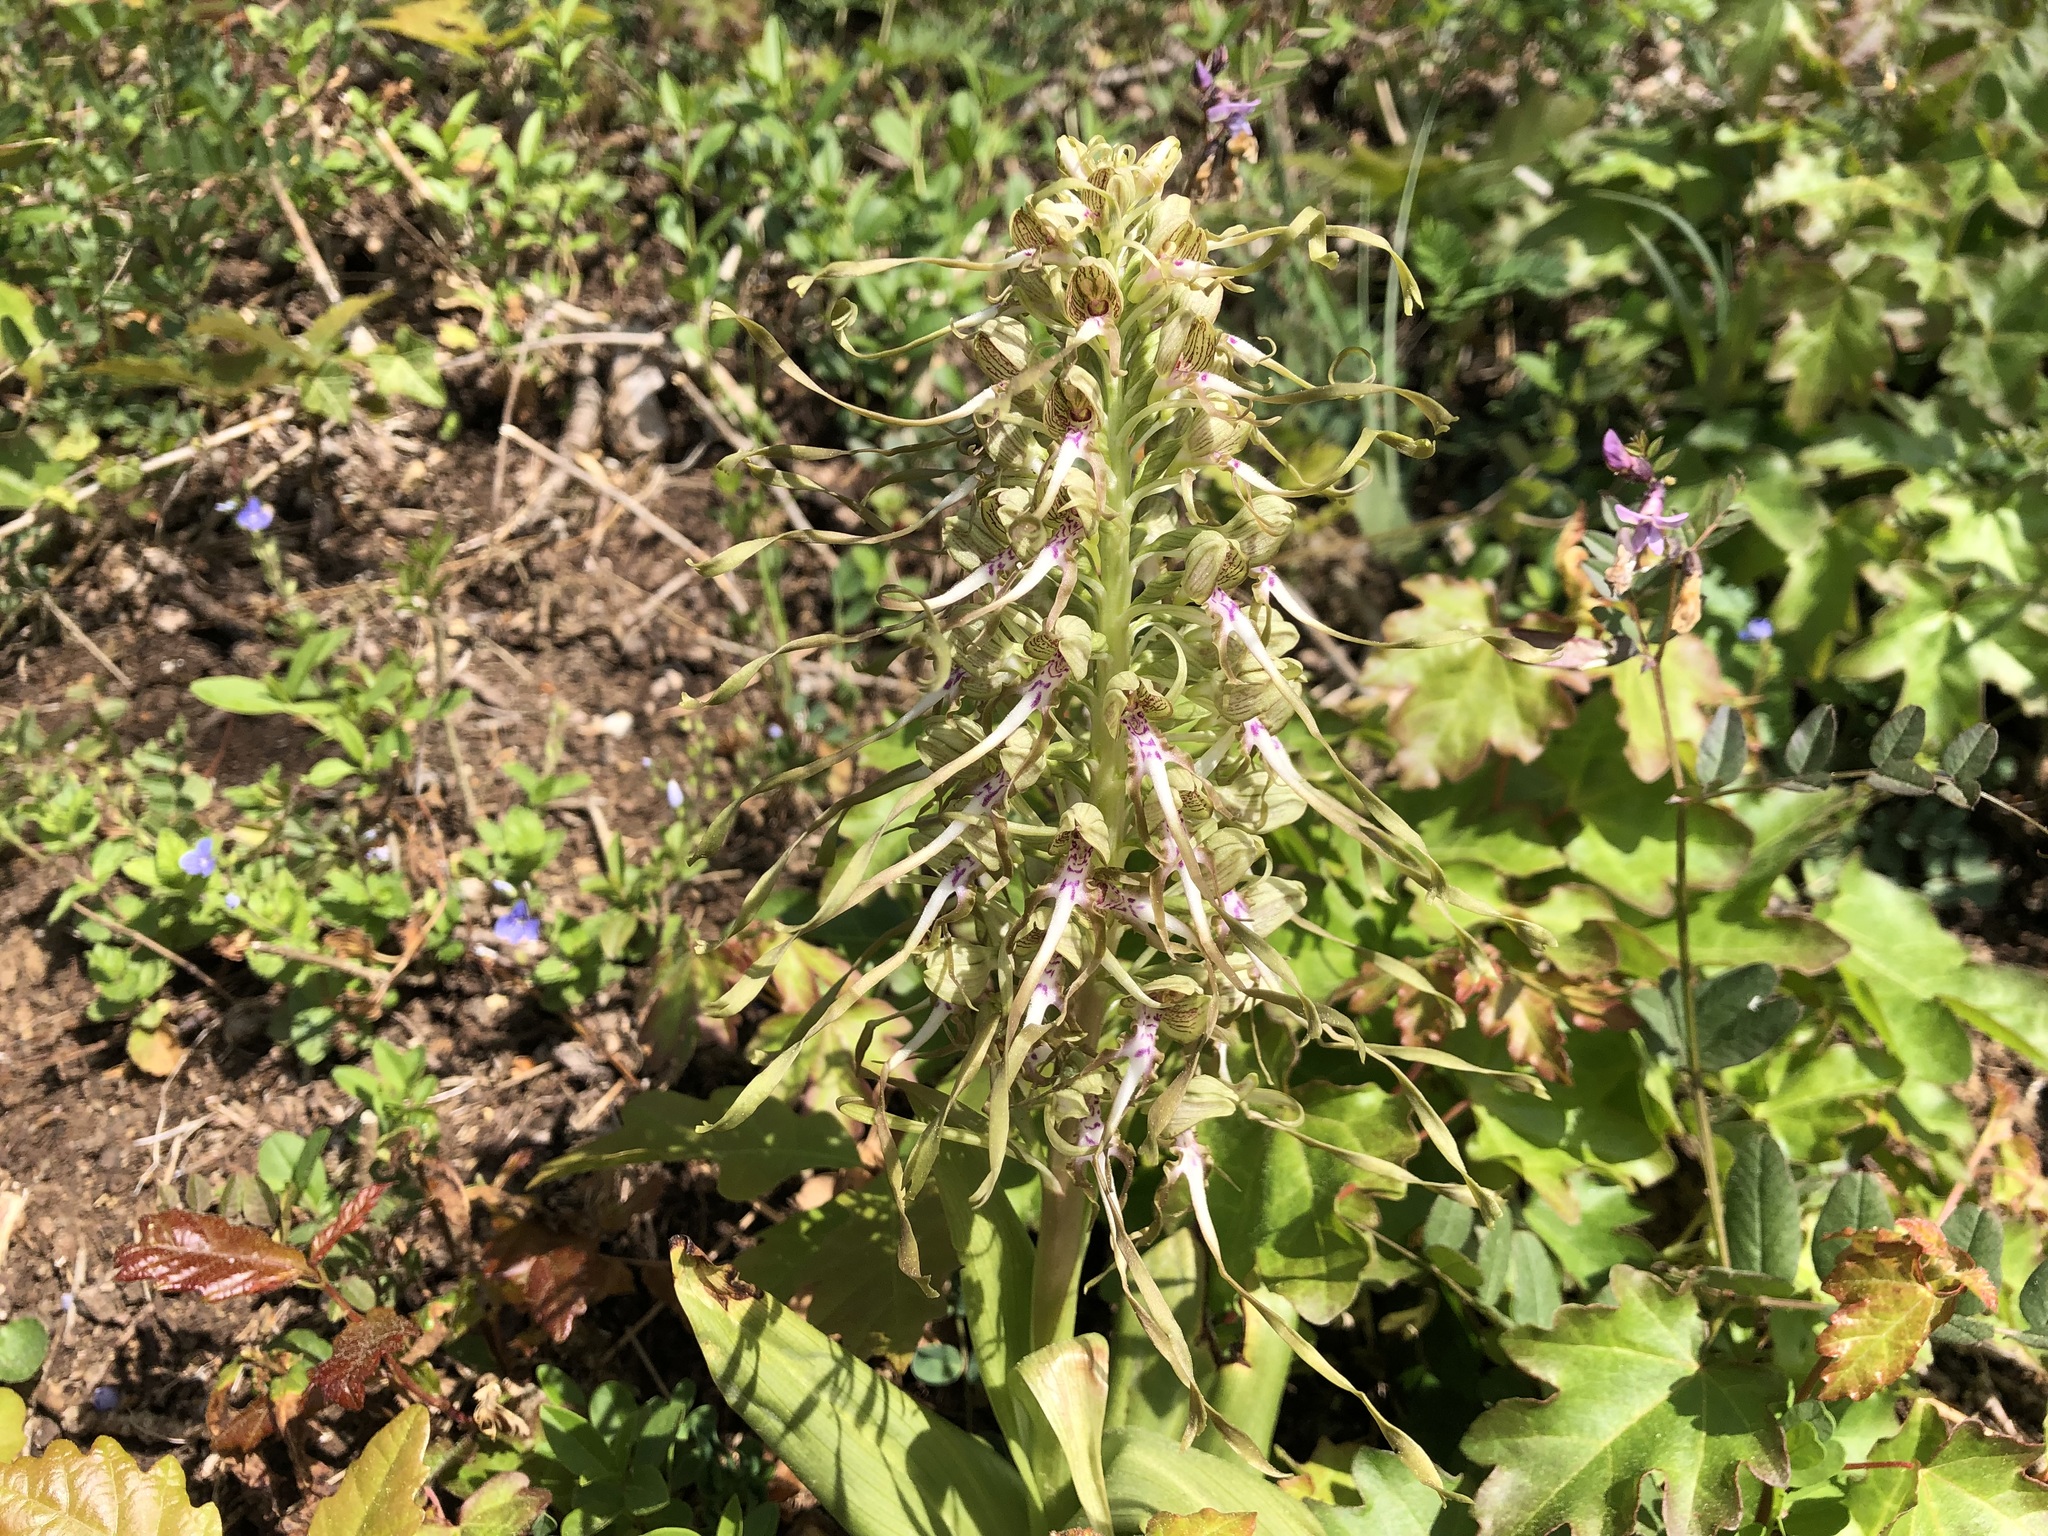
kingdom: Plantae
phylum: Tracheophyta
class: Liliopsida
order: Asparagales
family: Orchidaceae
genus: Himantoglossum
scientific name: Himantoglossum hircinum
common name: Lizard orchid
